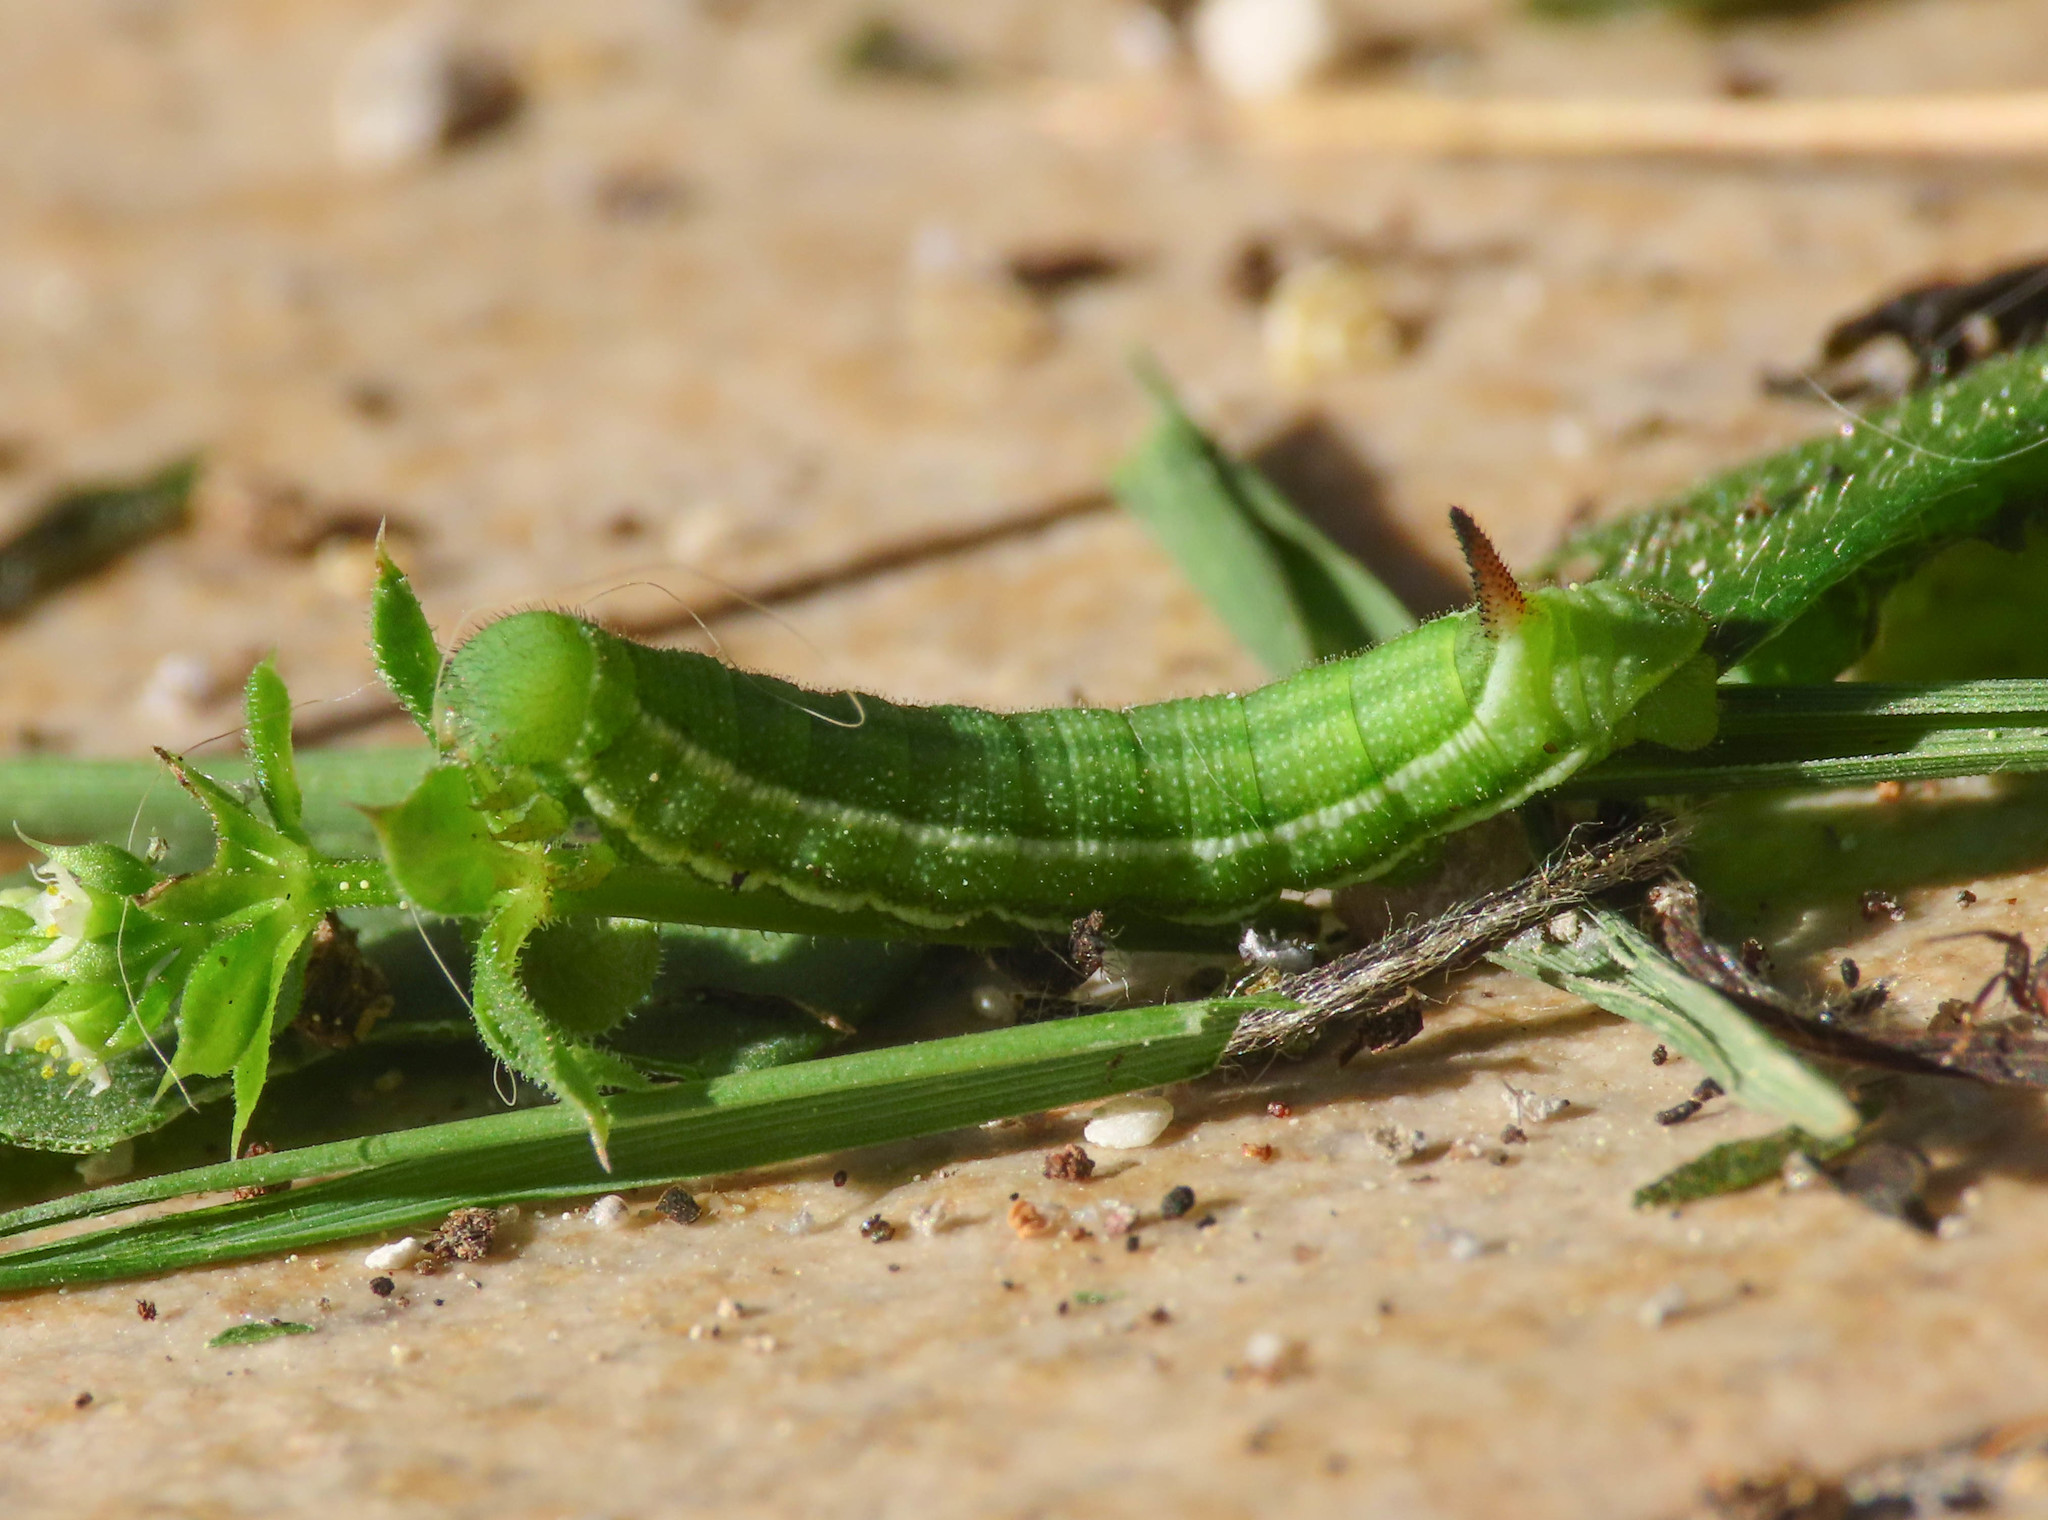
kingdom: Animalia
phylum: Arthropoda
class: Insecta
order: Lepidoptera
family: Sphingidae
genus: Macroglossum
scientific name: Macroglossum stellatarum
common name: Humming-bird hawk-moth
